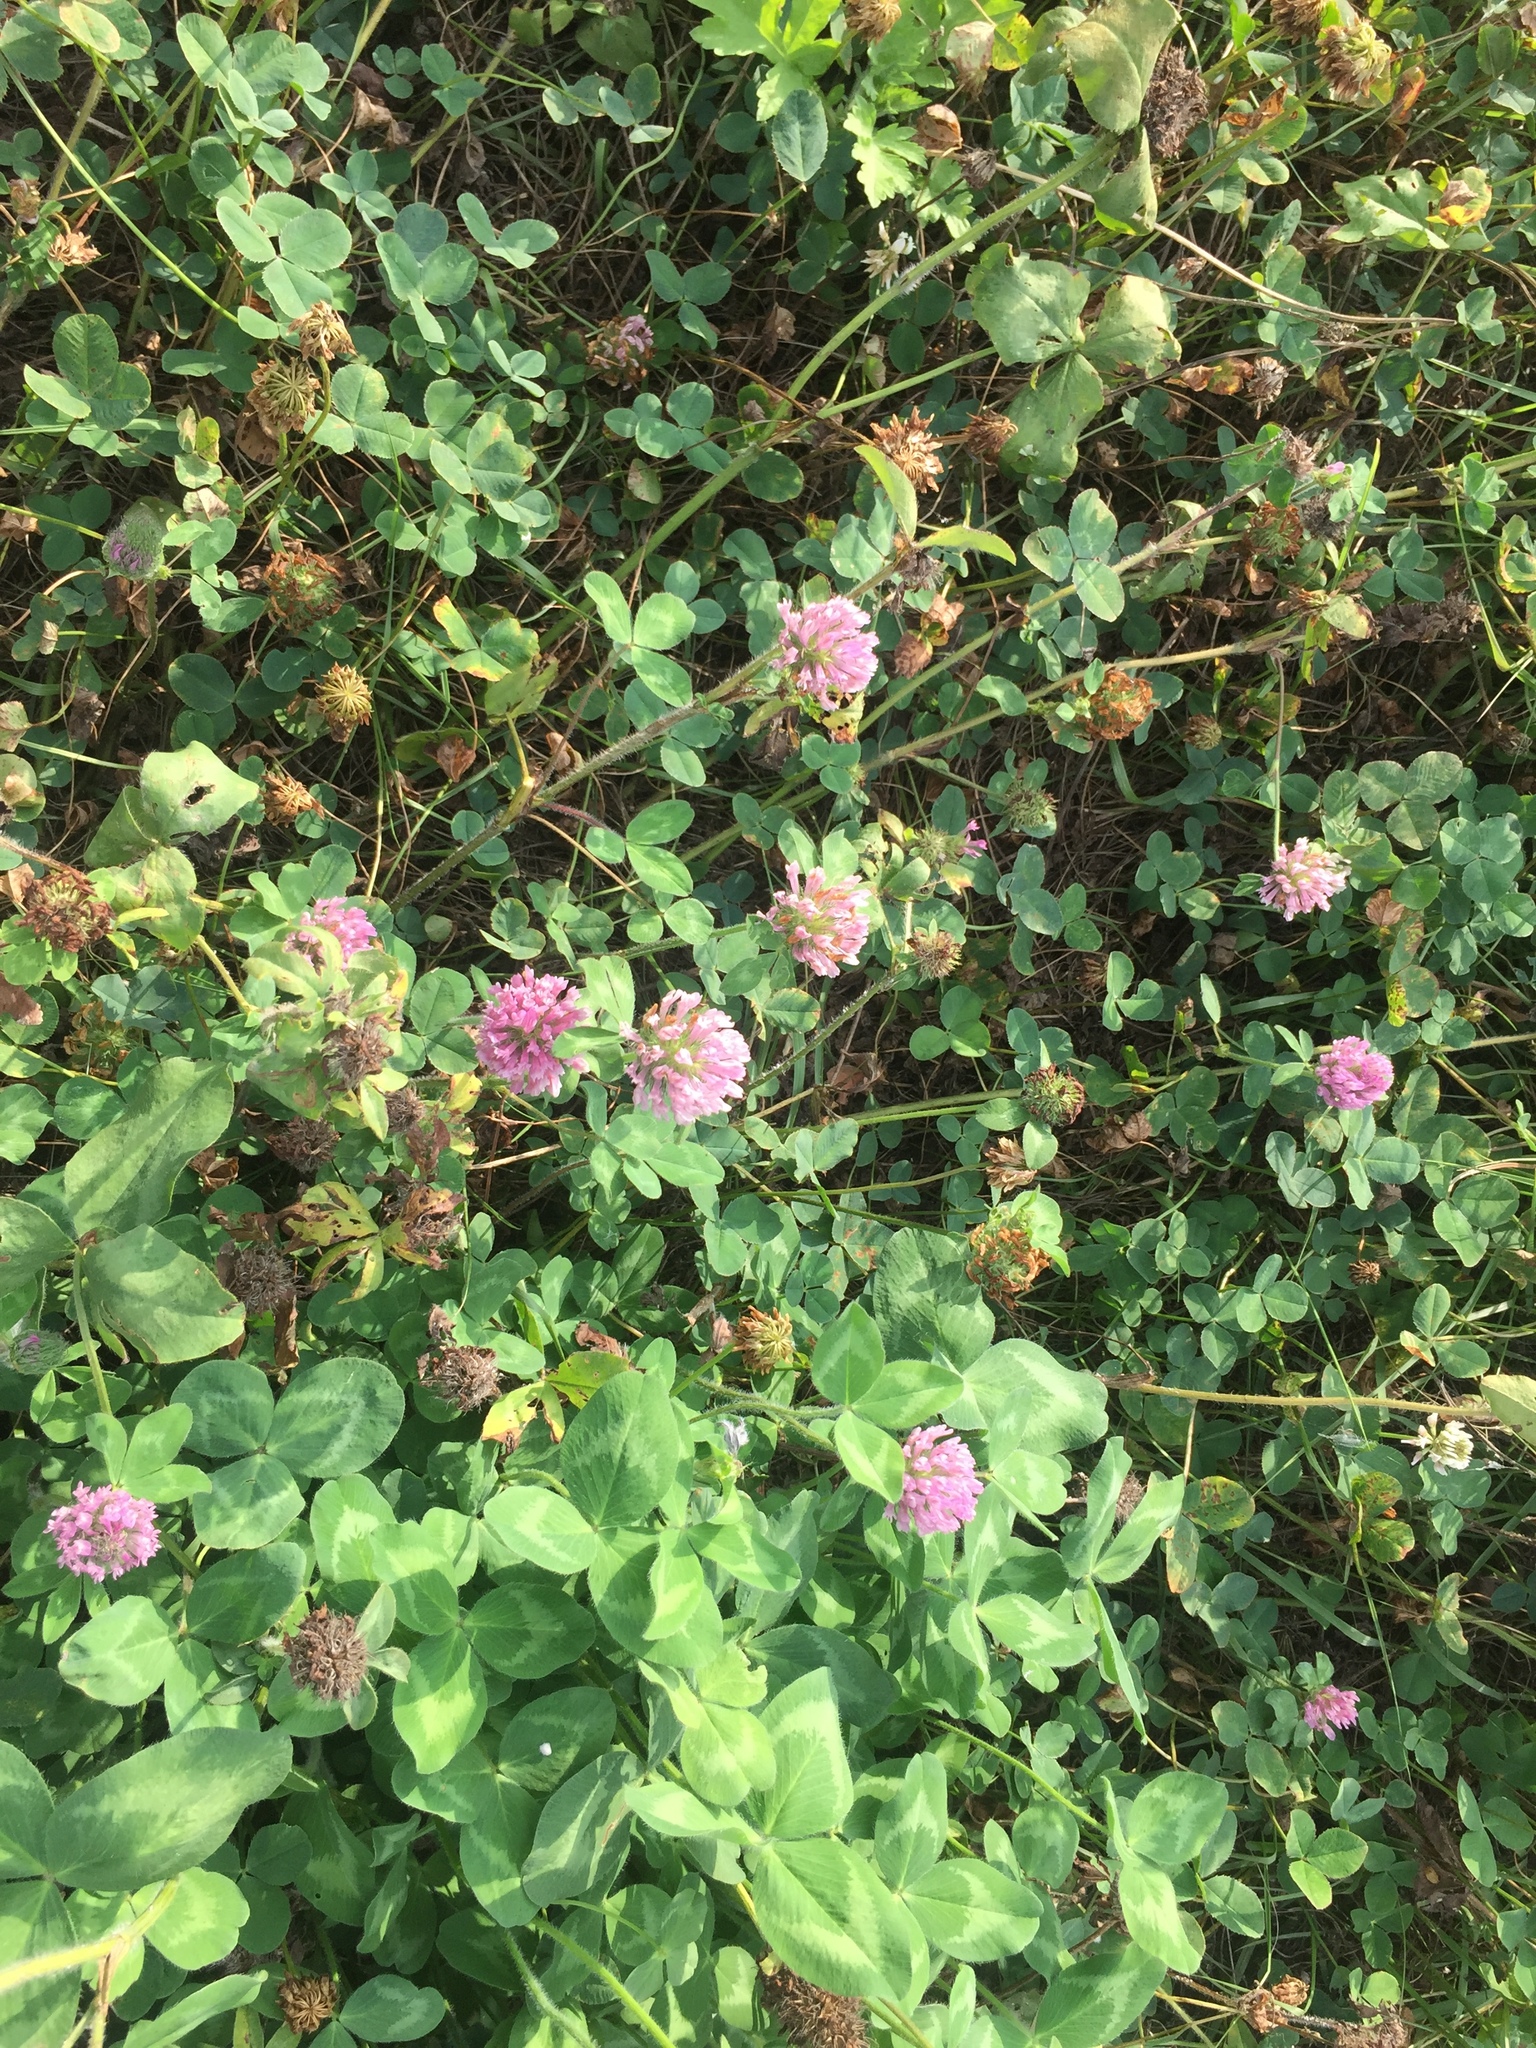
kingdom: Plantae
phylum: Tracheophyta
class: Magnoliopsida
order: Fabales
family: Fabaceae
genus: Trifolium
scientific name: Trifolium pratense
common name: Red clover
